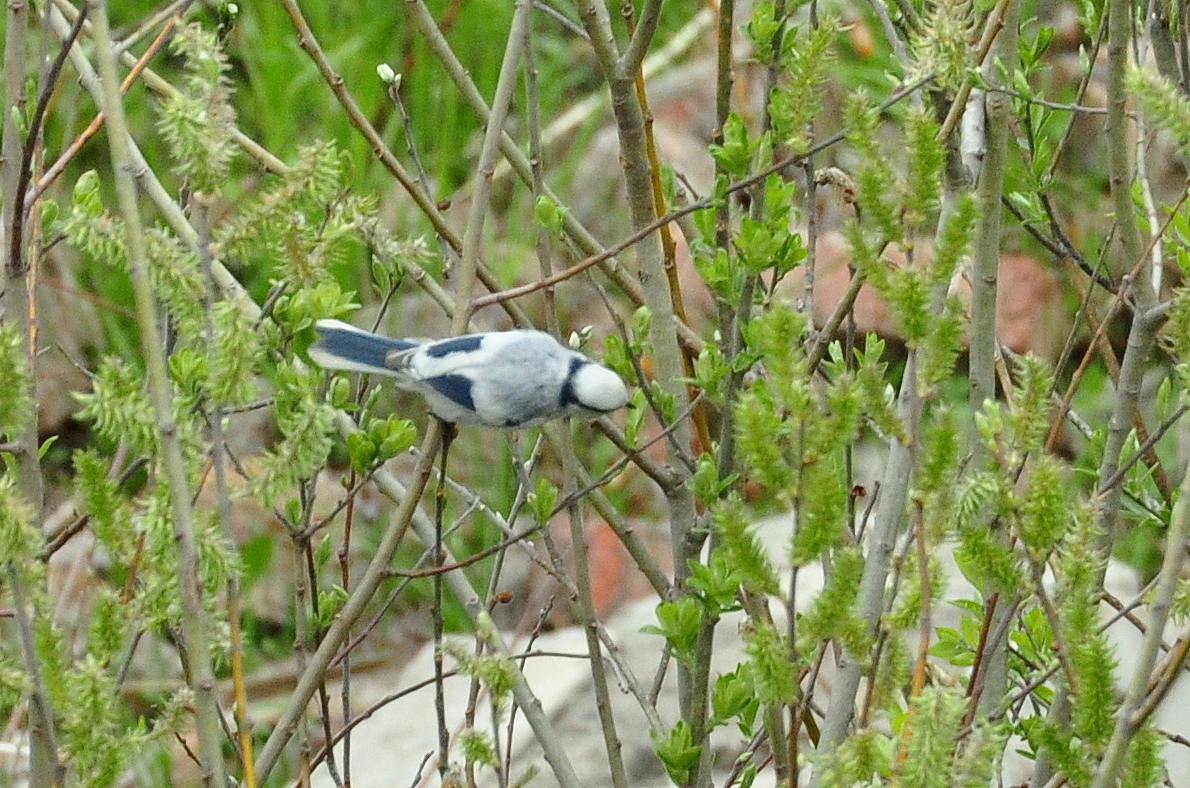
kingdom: Animalia
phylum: Chordata
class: Aves
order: Passeriformes
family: Paridae
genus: Cyanistes
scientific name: Cyanistes cyanus
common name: Azure tit
